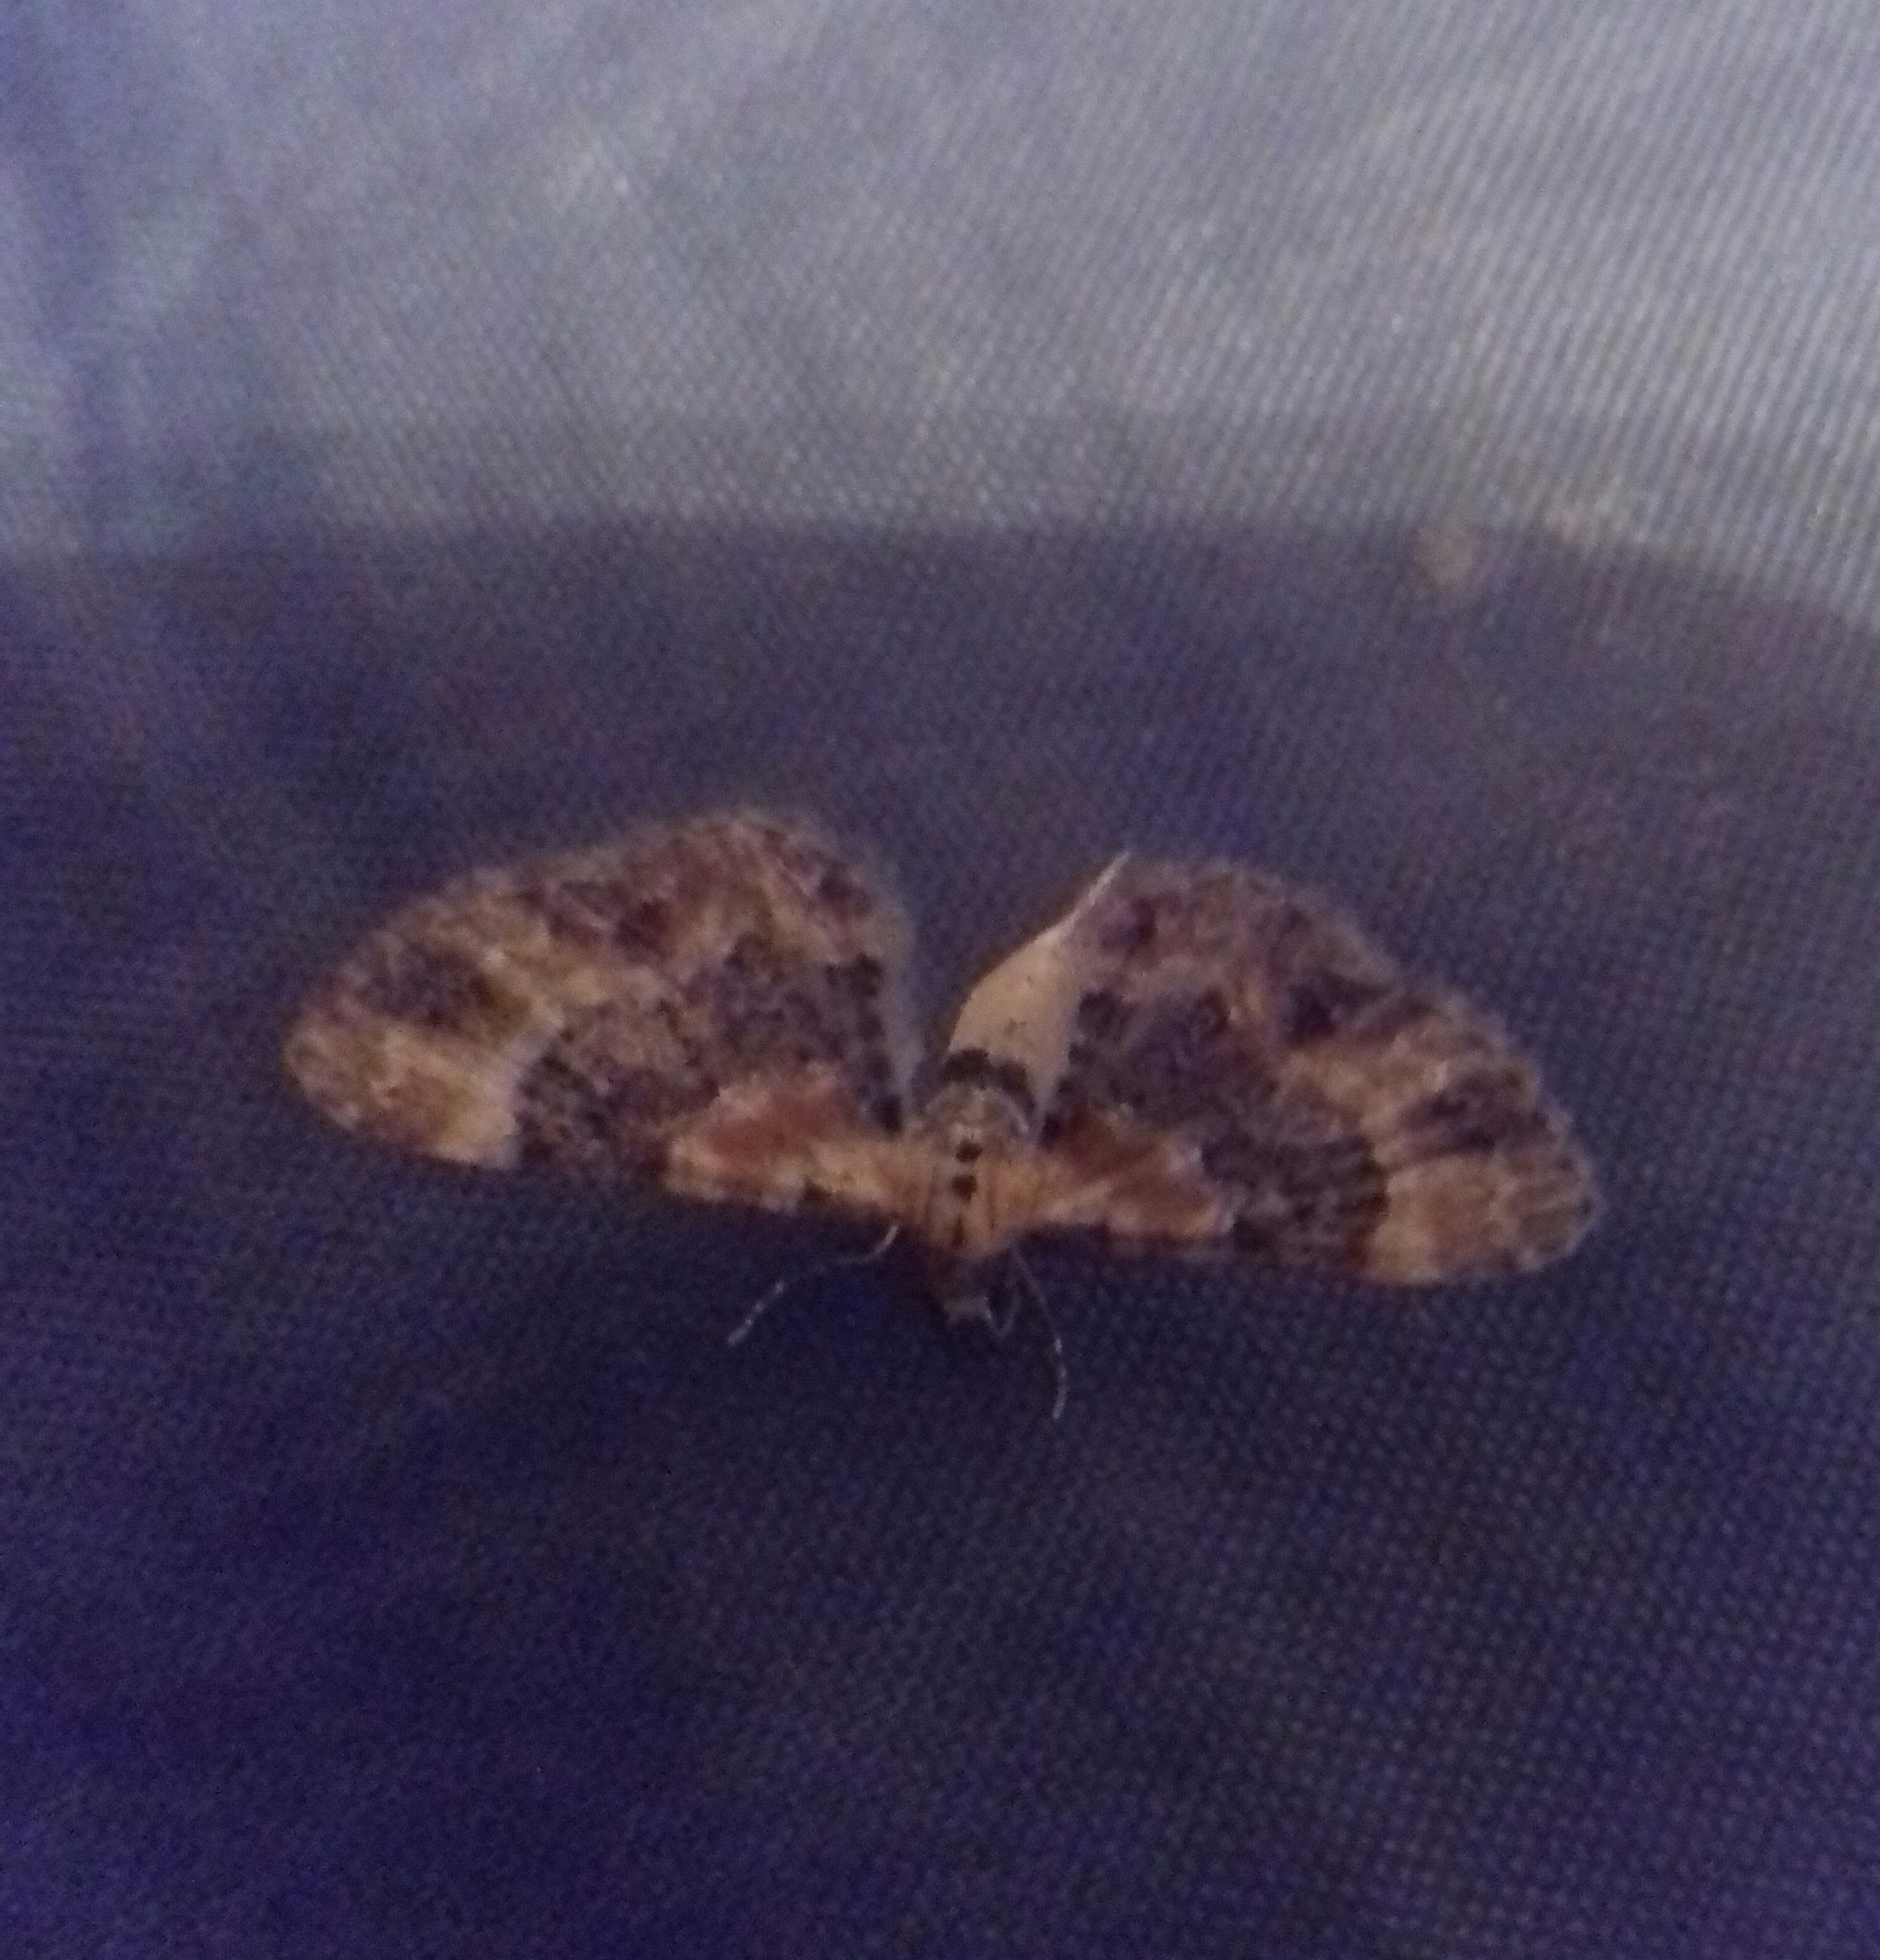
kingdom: Animalia
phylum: Arthropoda
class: Insecta
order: Lepidoptera
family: Geometridae
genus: Eupithecia
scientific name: Eupithecia linariata
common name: Toadflax pug
